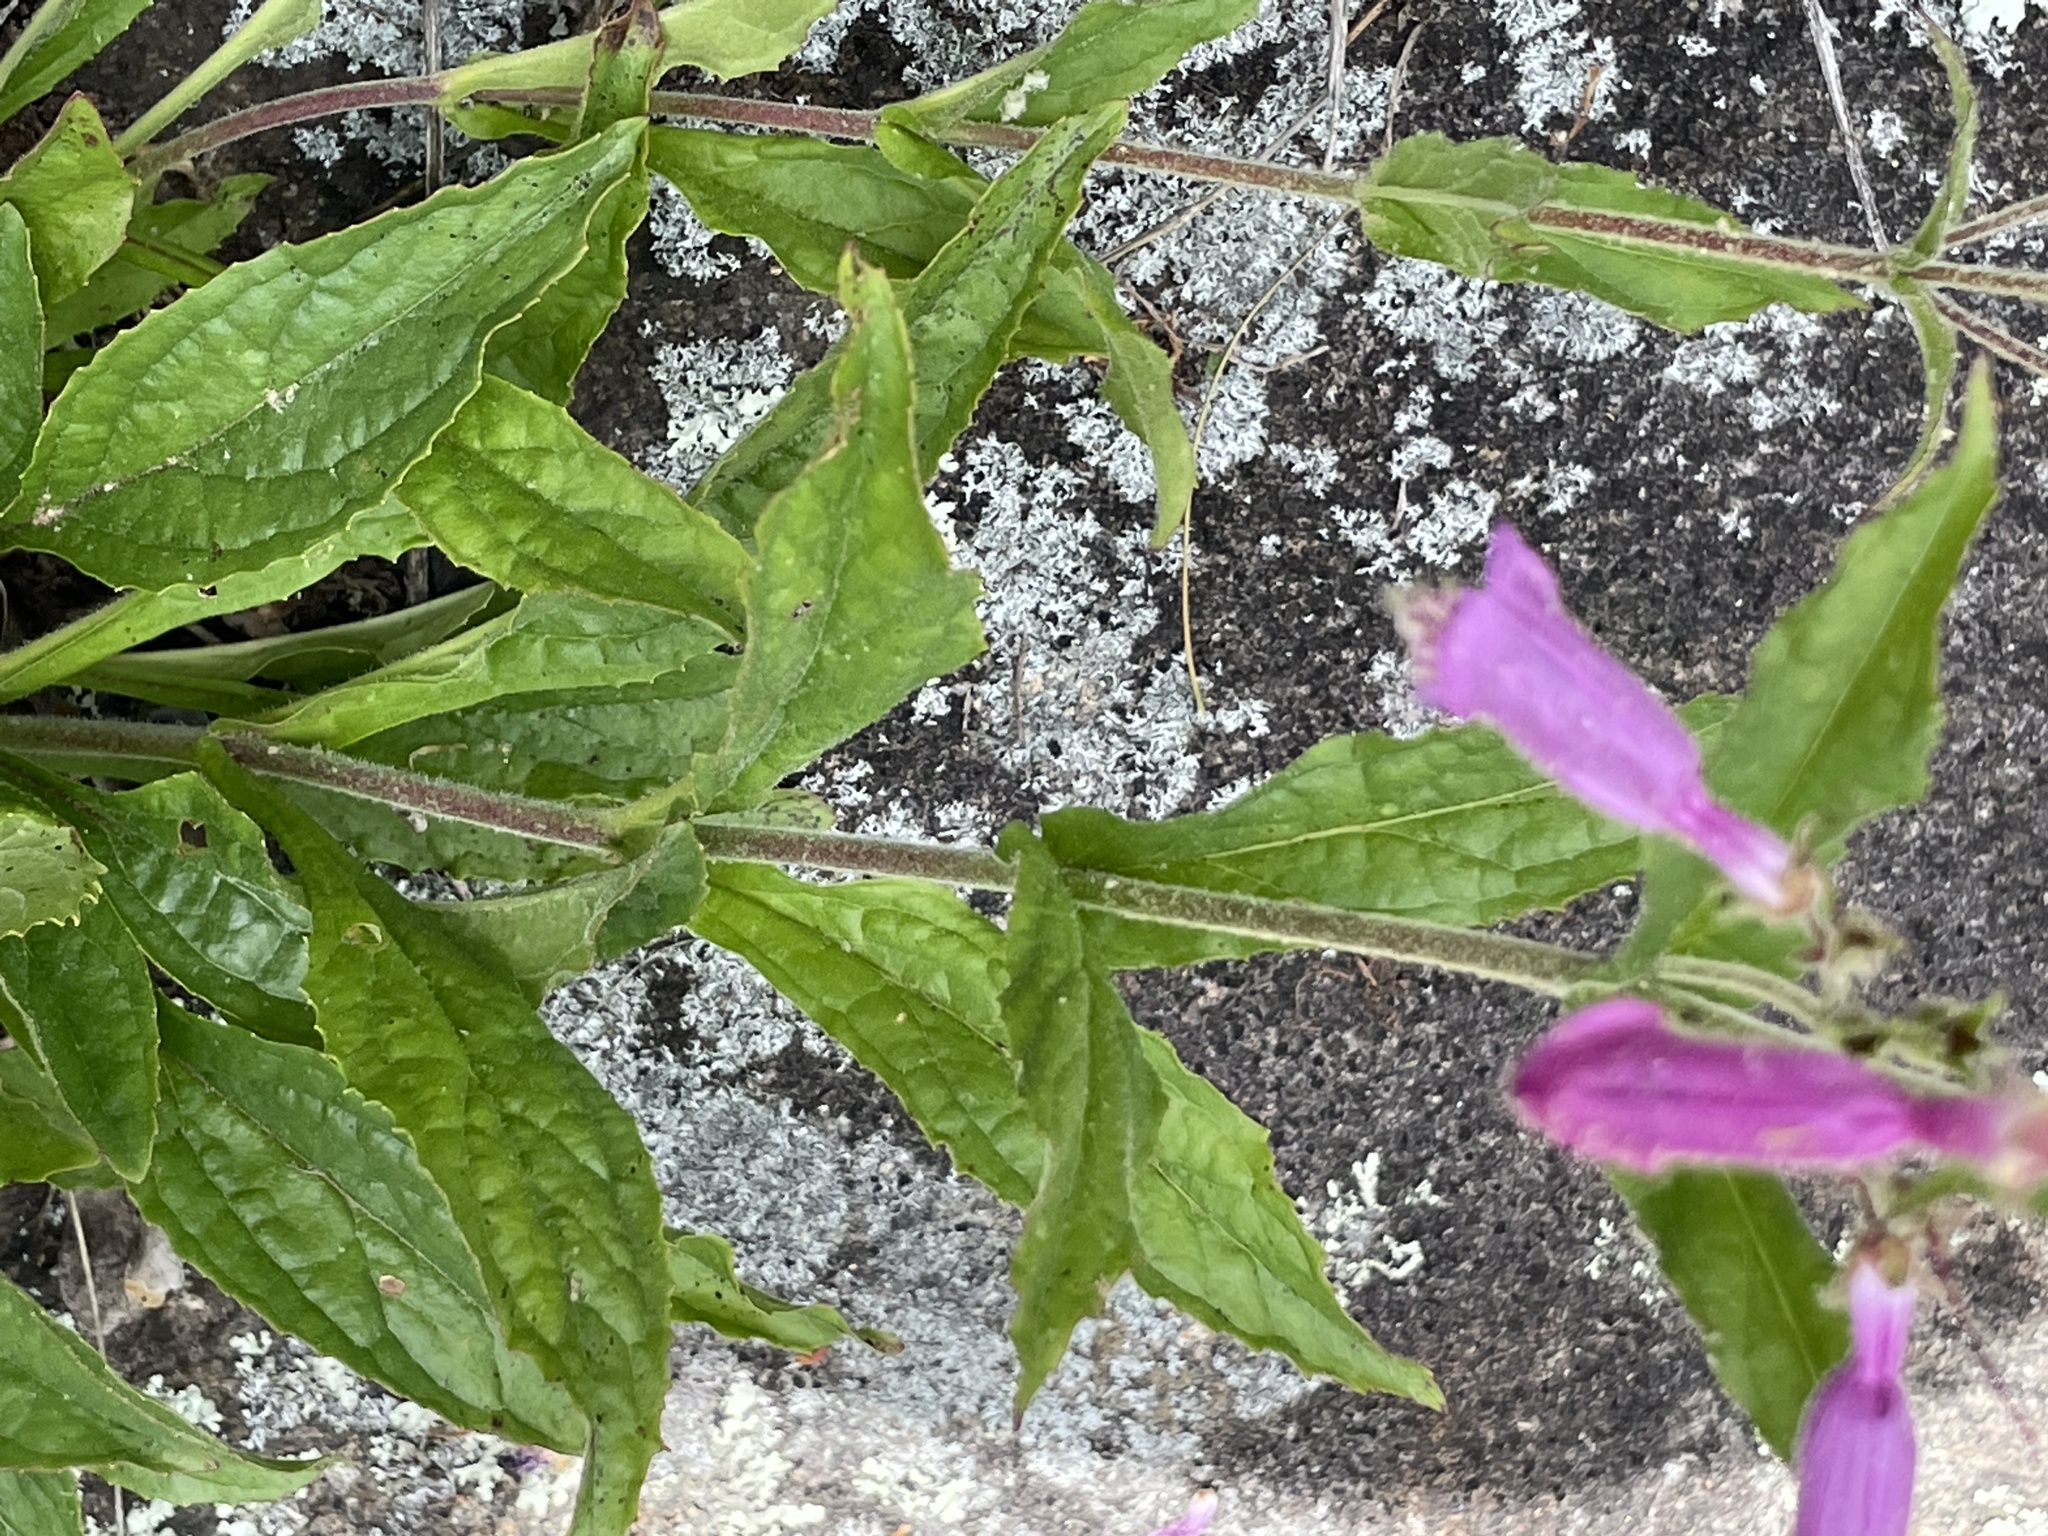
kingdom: Plantae
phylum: Tracheophyta
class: Magnoliopsida
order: Lamiales
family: Plantaginaceae
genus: Penstemon
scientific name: Penstemon smallii
